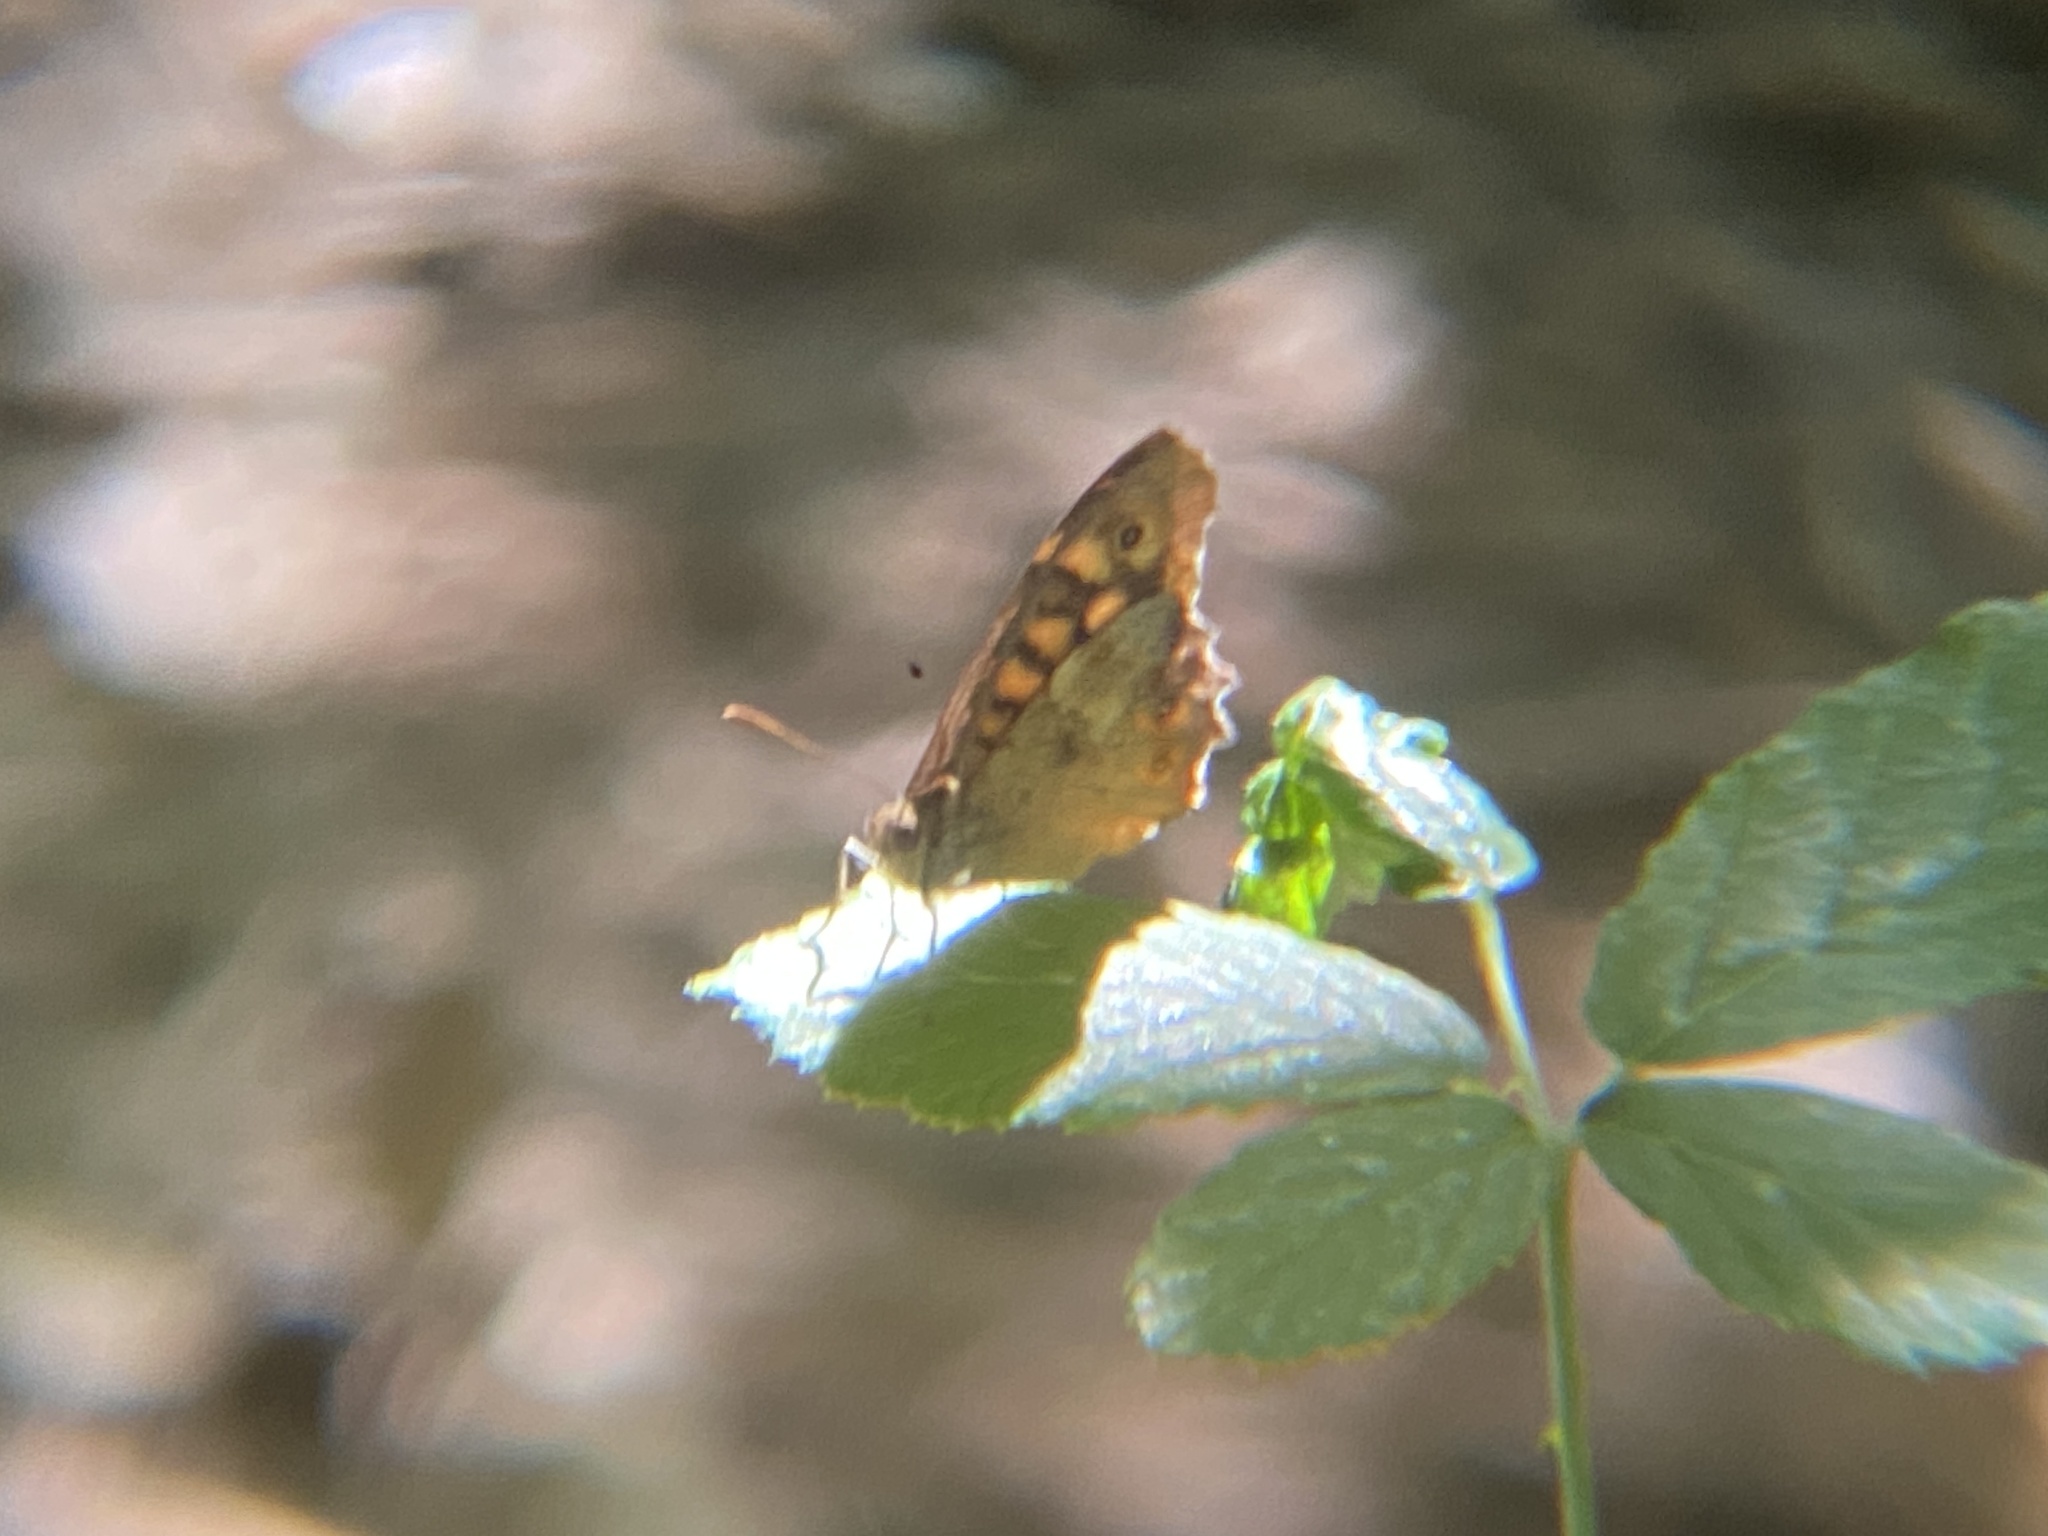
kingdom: Animalia
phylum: Arthropoda
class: Insecta
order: Lepidoptera
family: Nymphalidae
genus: Pararge
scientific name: Pararge aegeria
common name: Speckled wood
